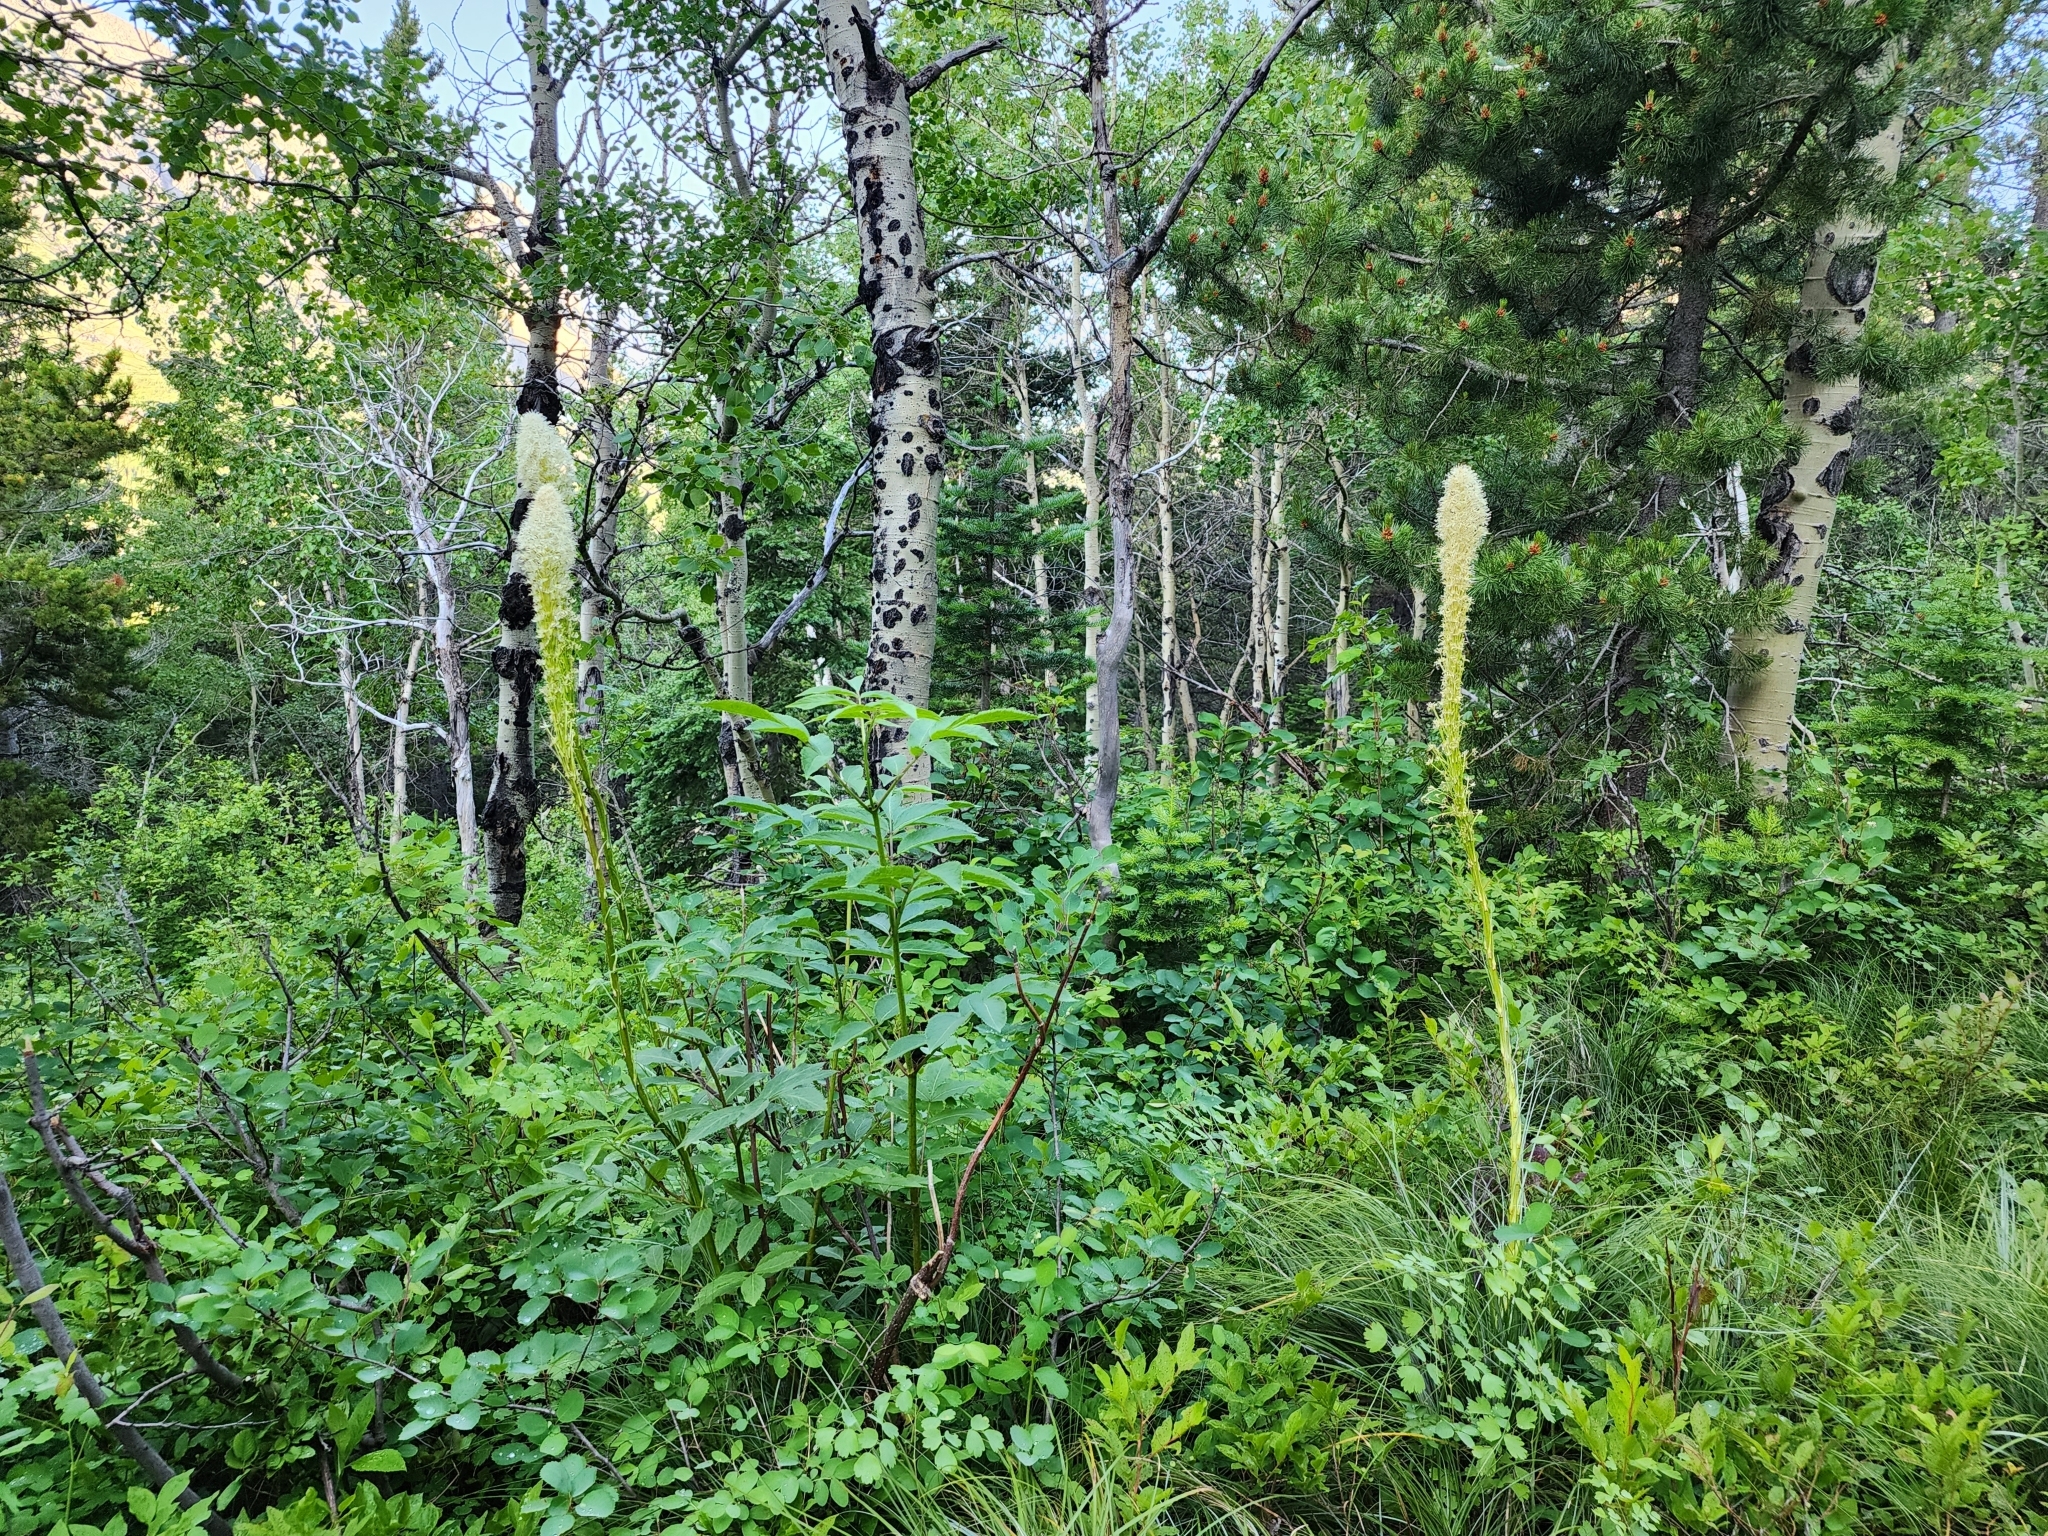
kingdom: Plantae
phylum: Tracheophyta
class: Liliopsida
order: Liliales
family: Melanthiaceae
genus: Xerophyllum
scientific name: Xerophyllum tenax
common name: Bear-grass
